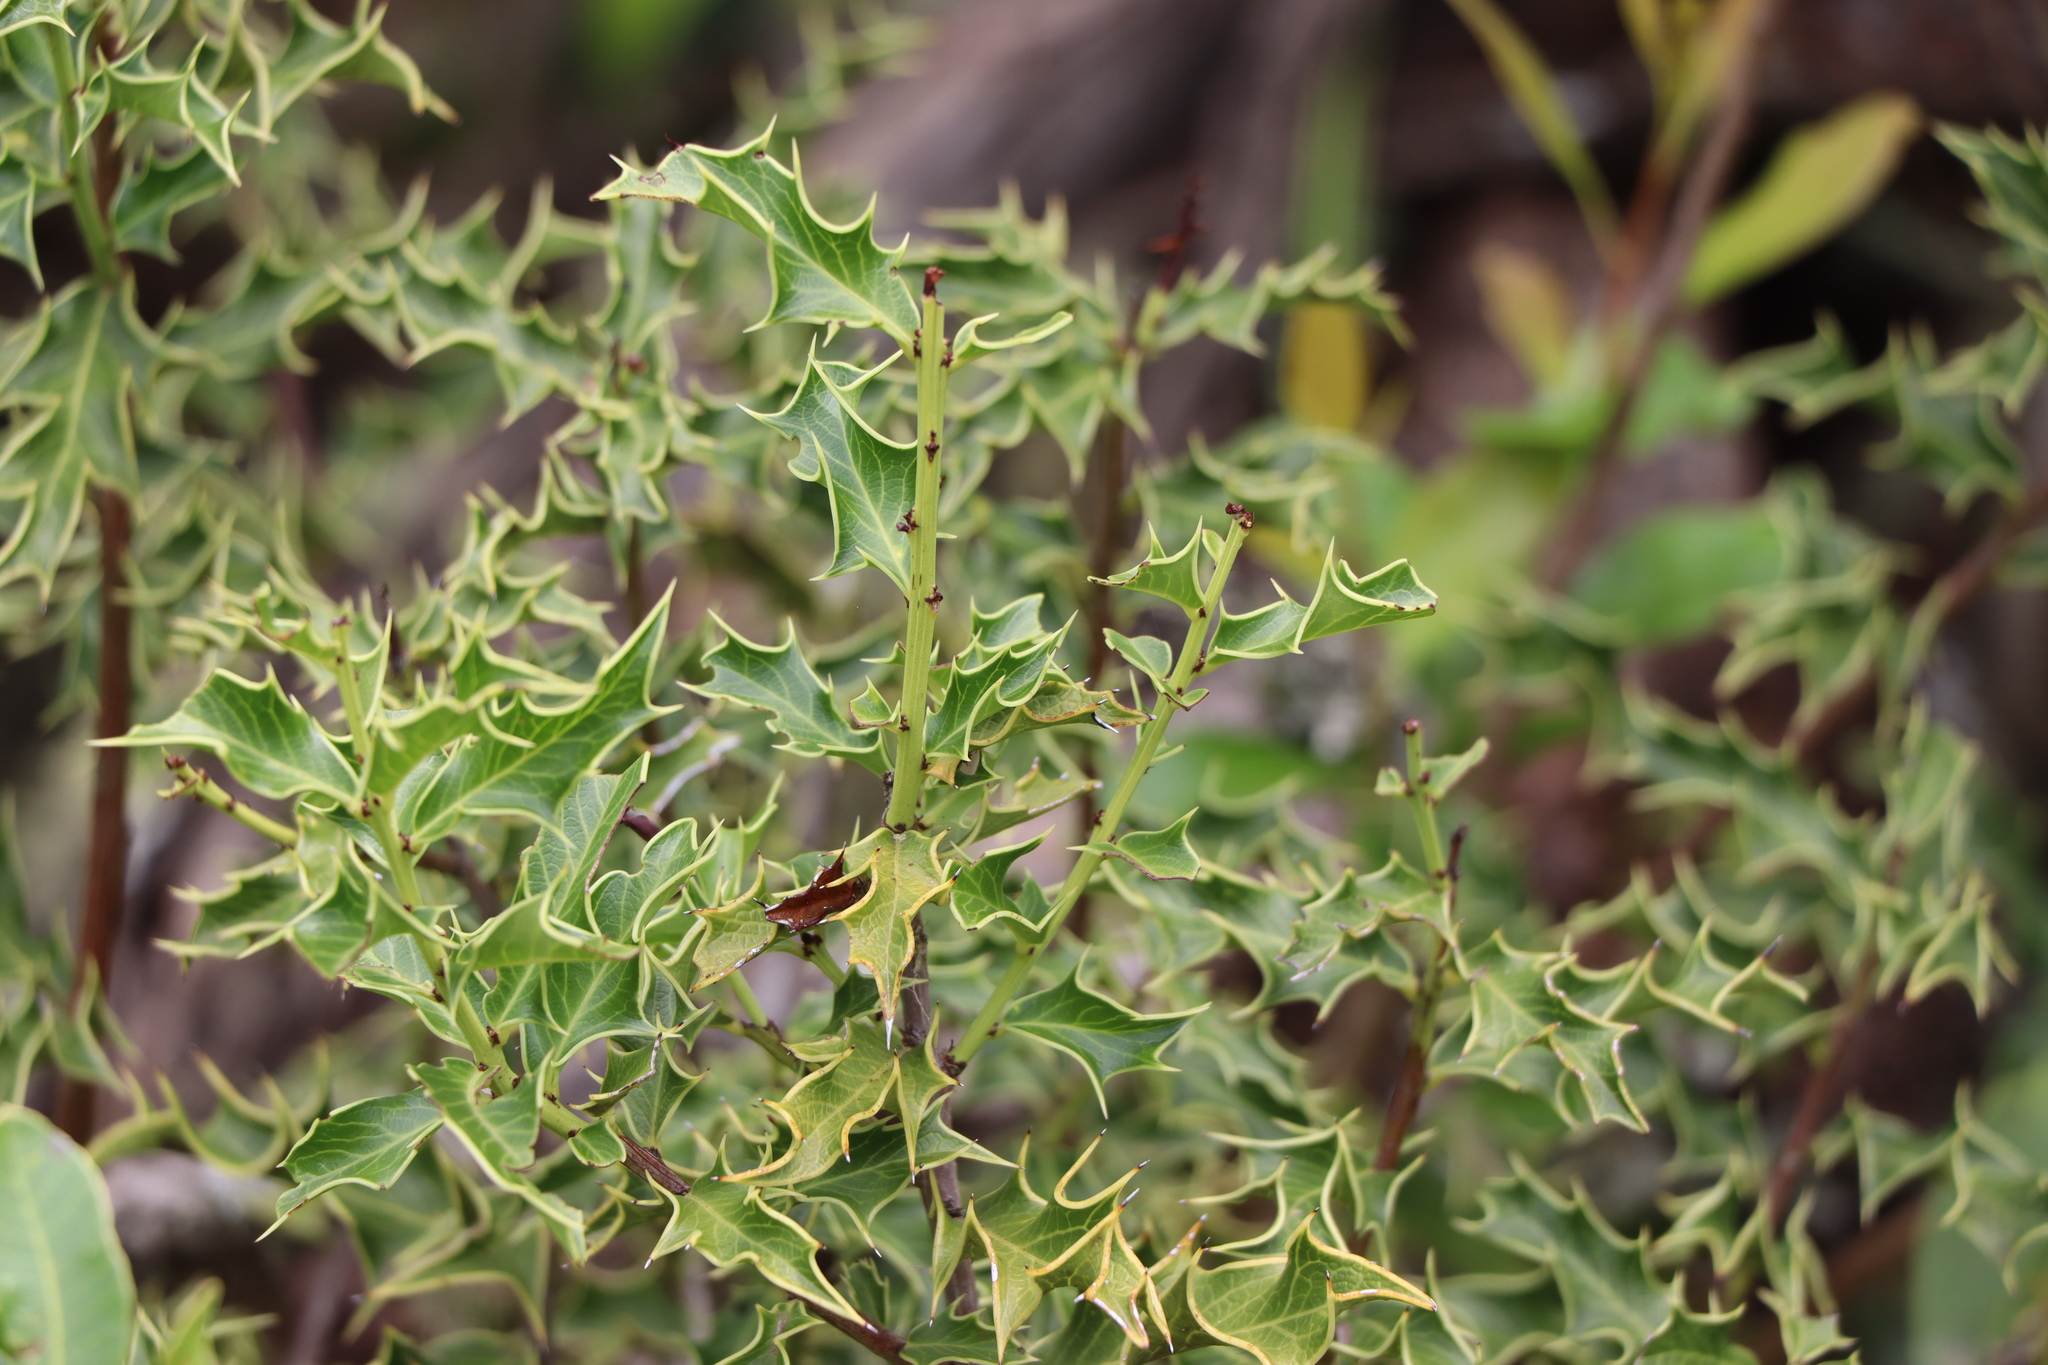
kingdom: Plantae
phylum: Tracheophyta
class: Magnoliopsida
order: Celastrales
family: Celastraceae
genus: Monteverdia
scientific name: Monteverdia
